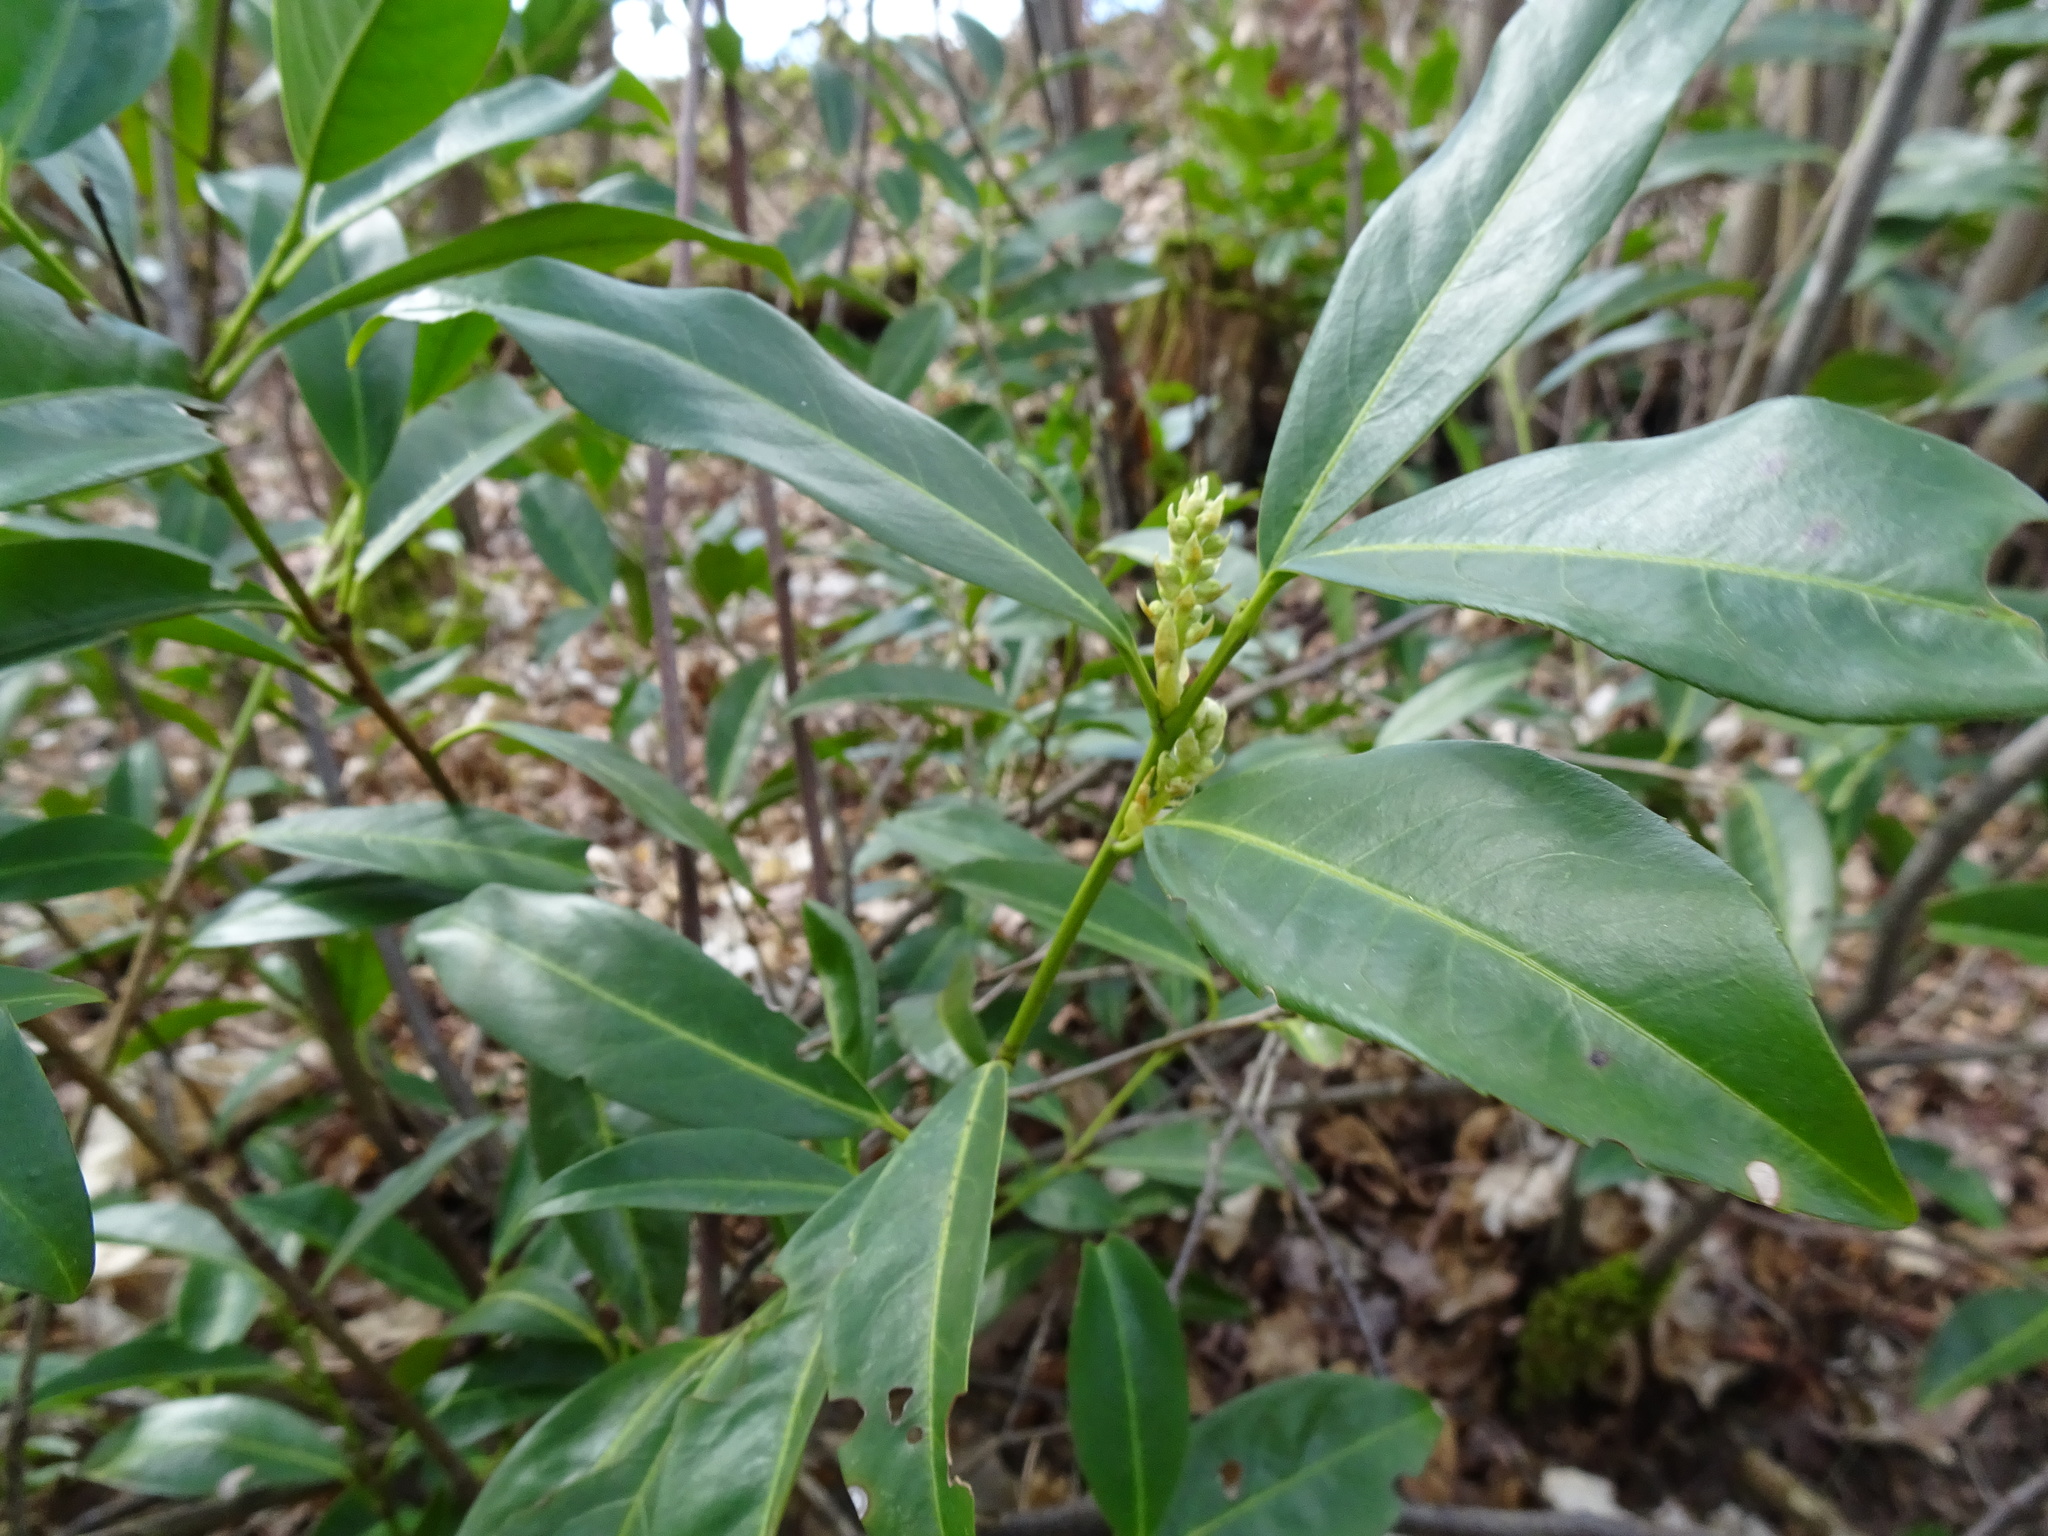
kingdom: Plantae
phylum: Tracheophyta
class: Magnoliopsida
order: Rosales
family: Rosaceae
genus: Prunus
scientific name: Prunus laurocerasus
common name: Cherry laurel
